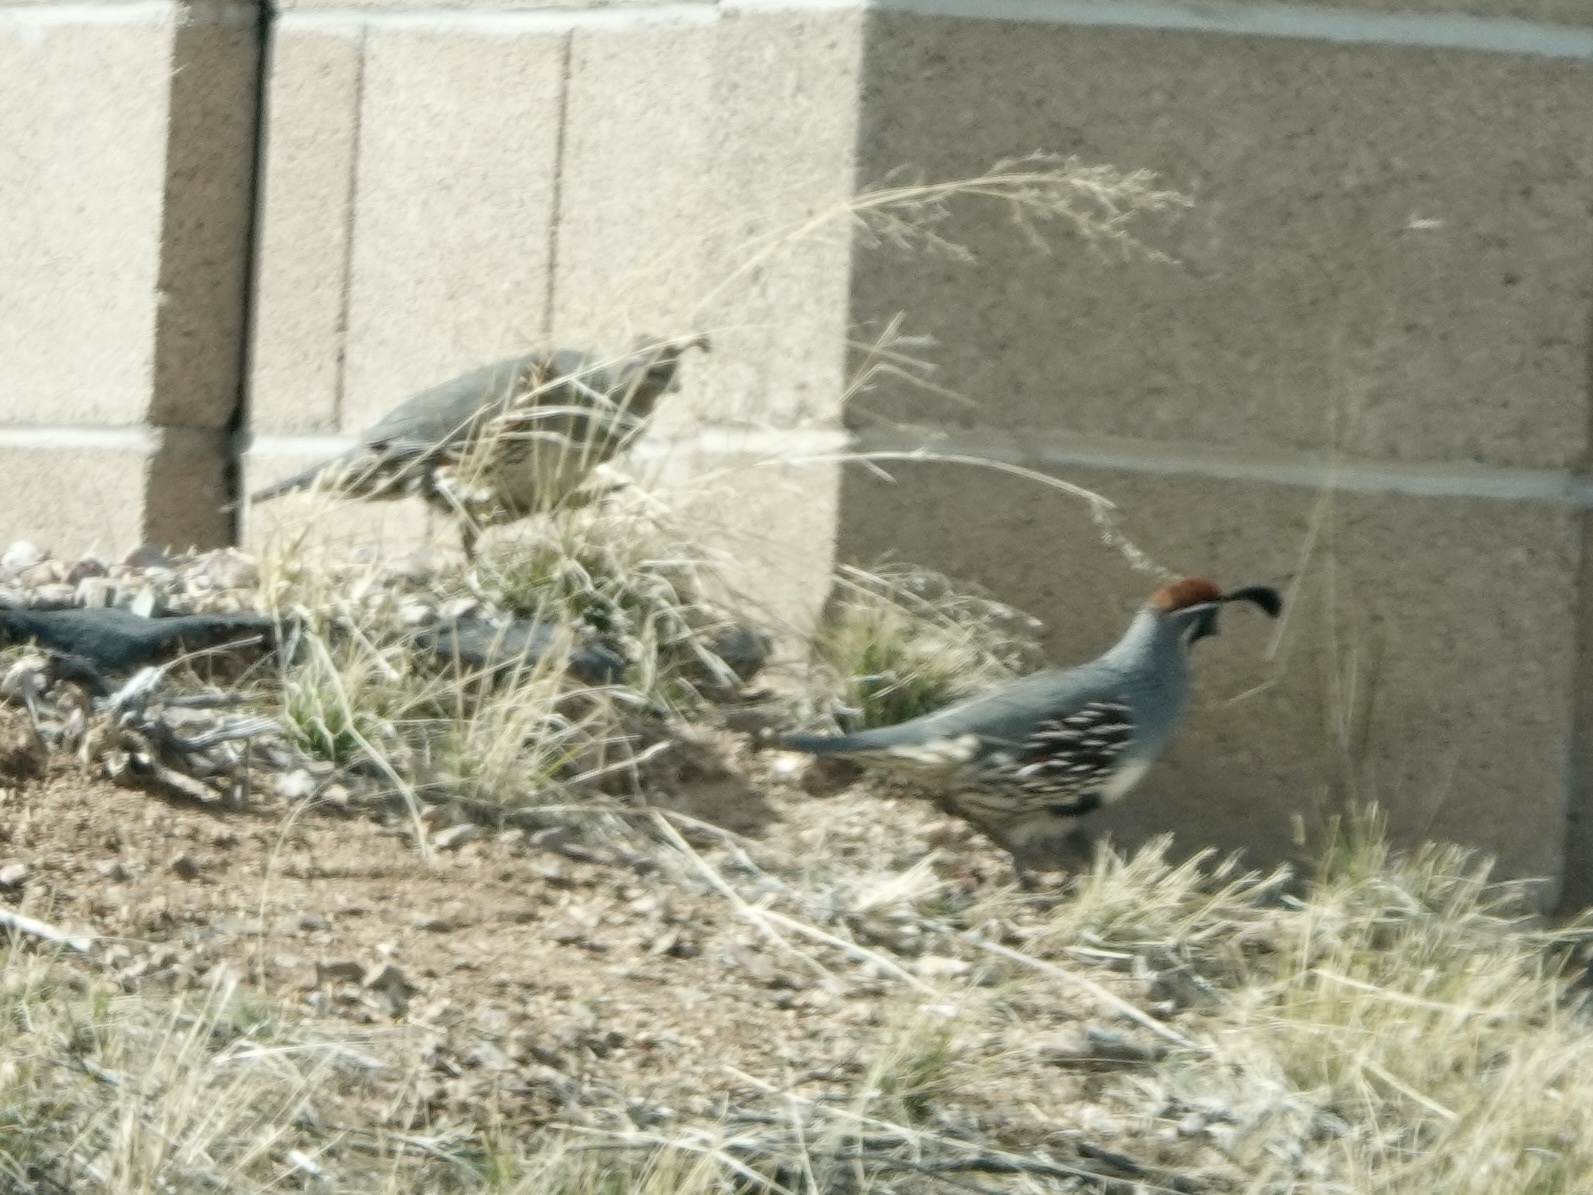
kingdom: Animalia
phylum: Chordata
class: Aves
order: Galliformes
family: Odontophoridae
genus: Callipepla
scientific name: Callipepla gambelii
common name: Gambel's quail
